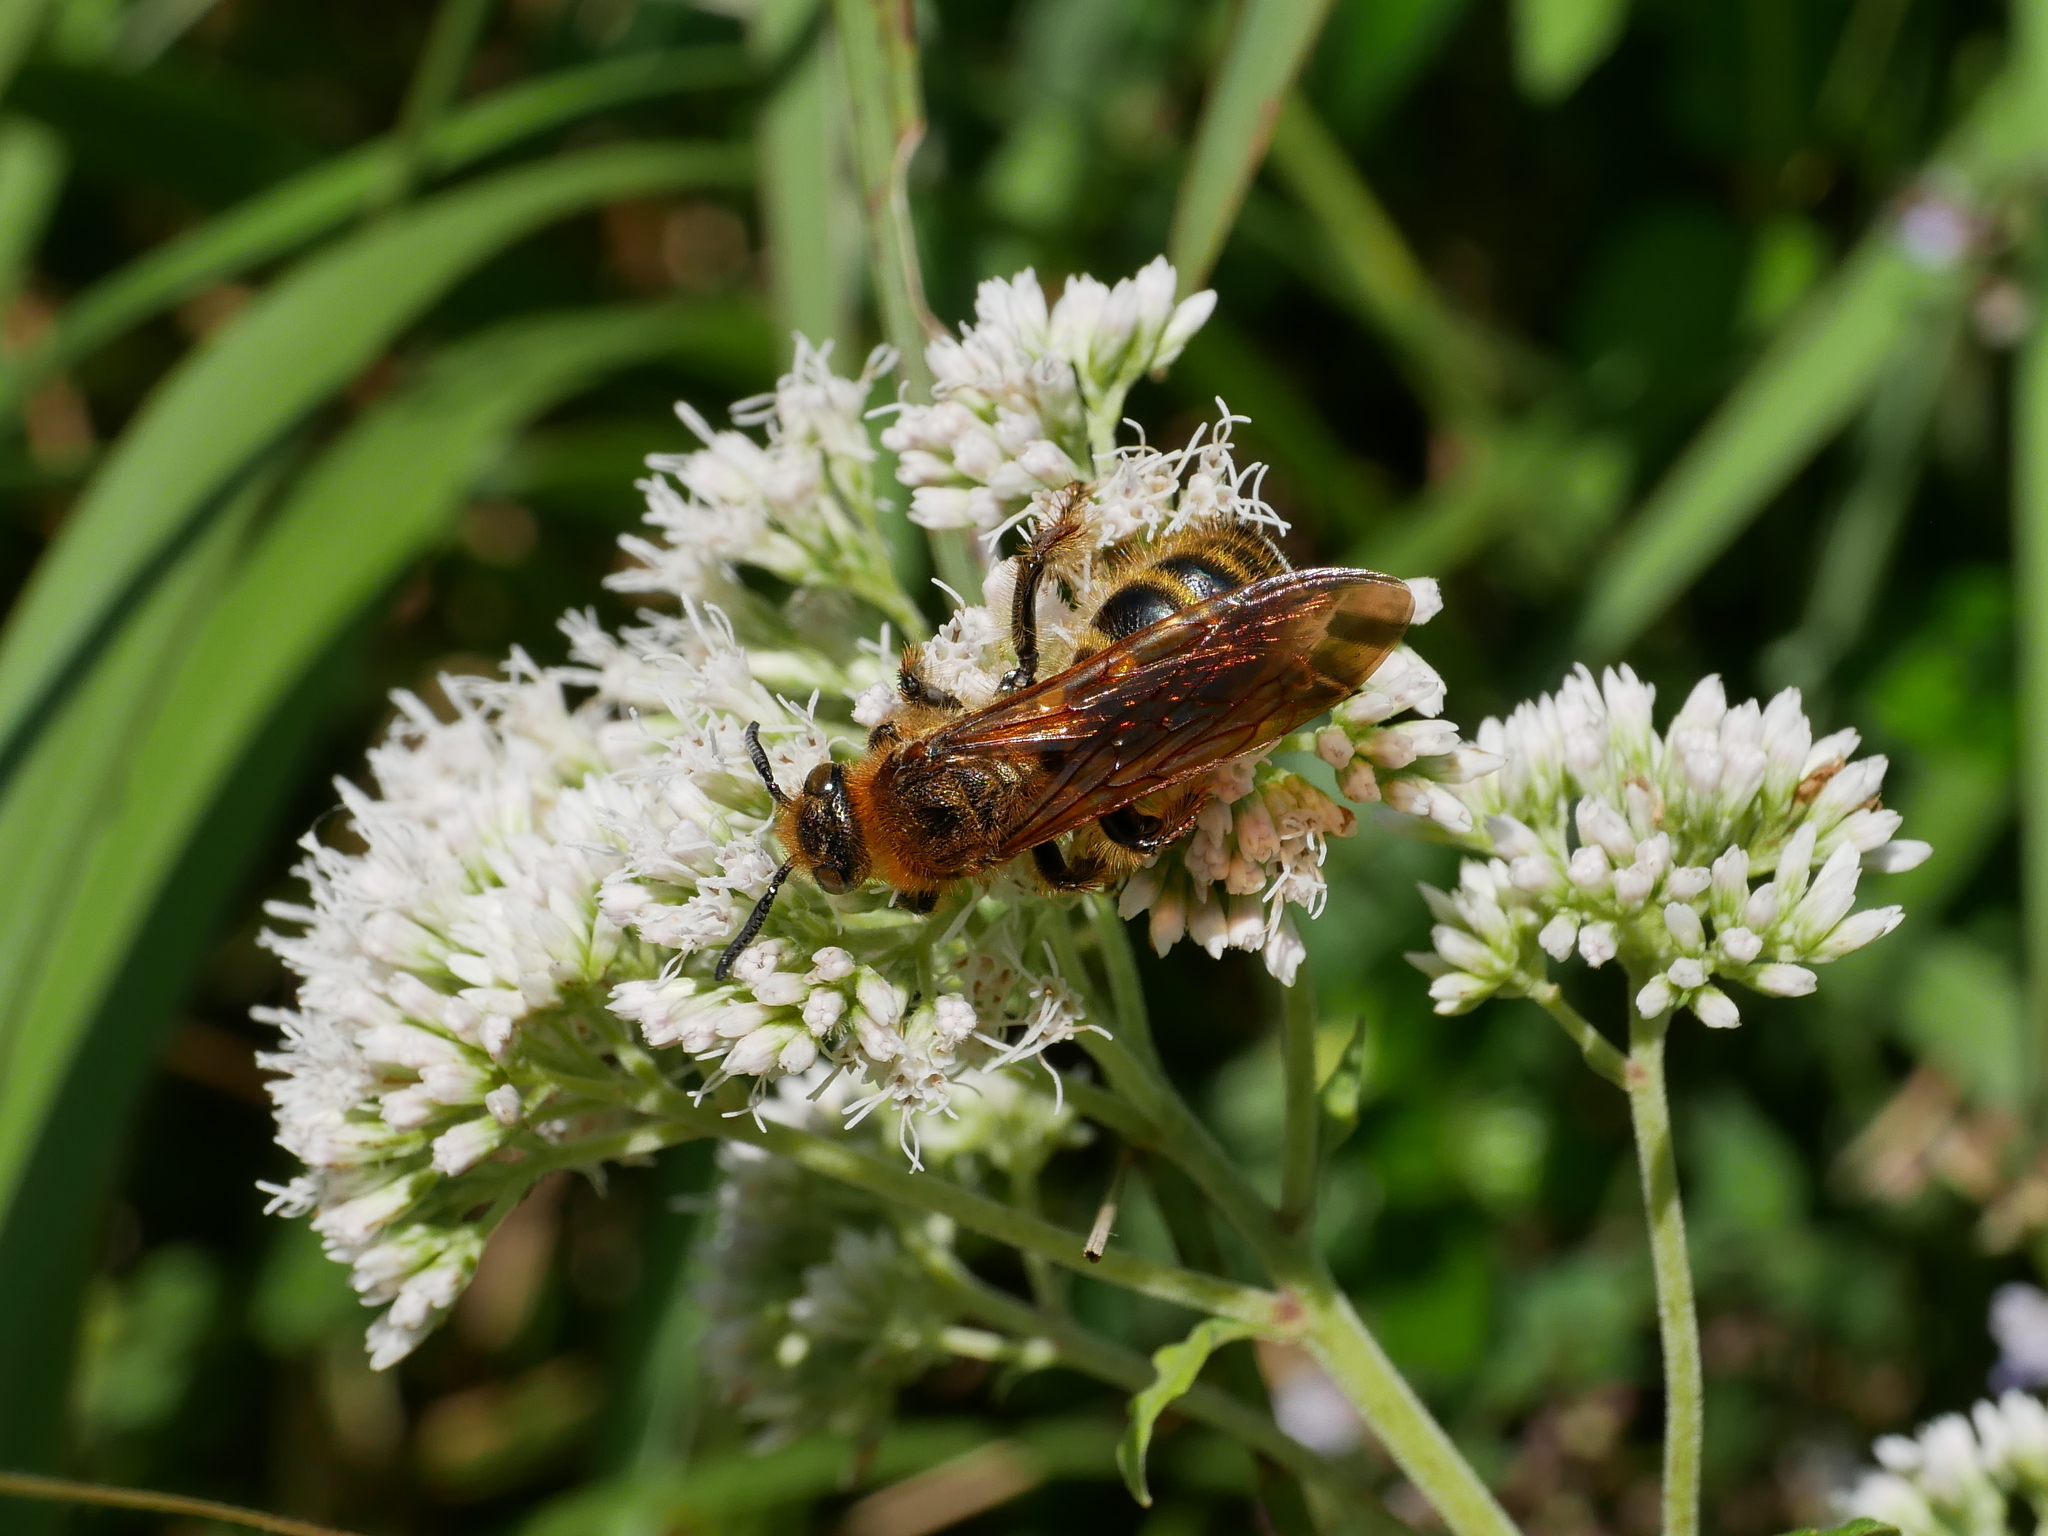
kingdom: Animalia
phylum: Arthropoda
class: Insecta
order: Hymenoptera
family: Scoliidae
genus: Campsomeris
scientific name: Campsomeris prismatica
